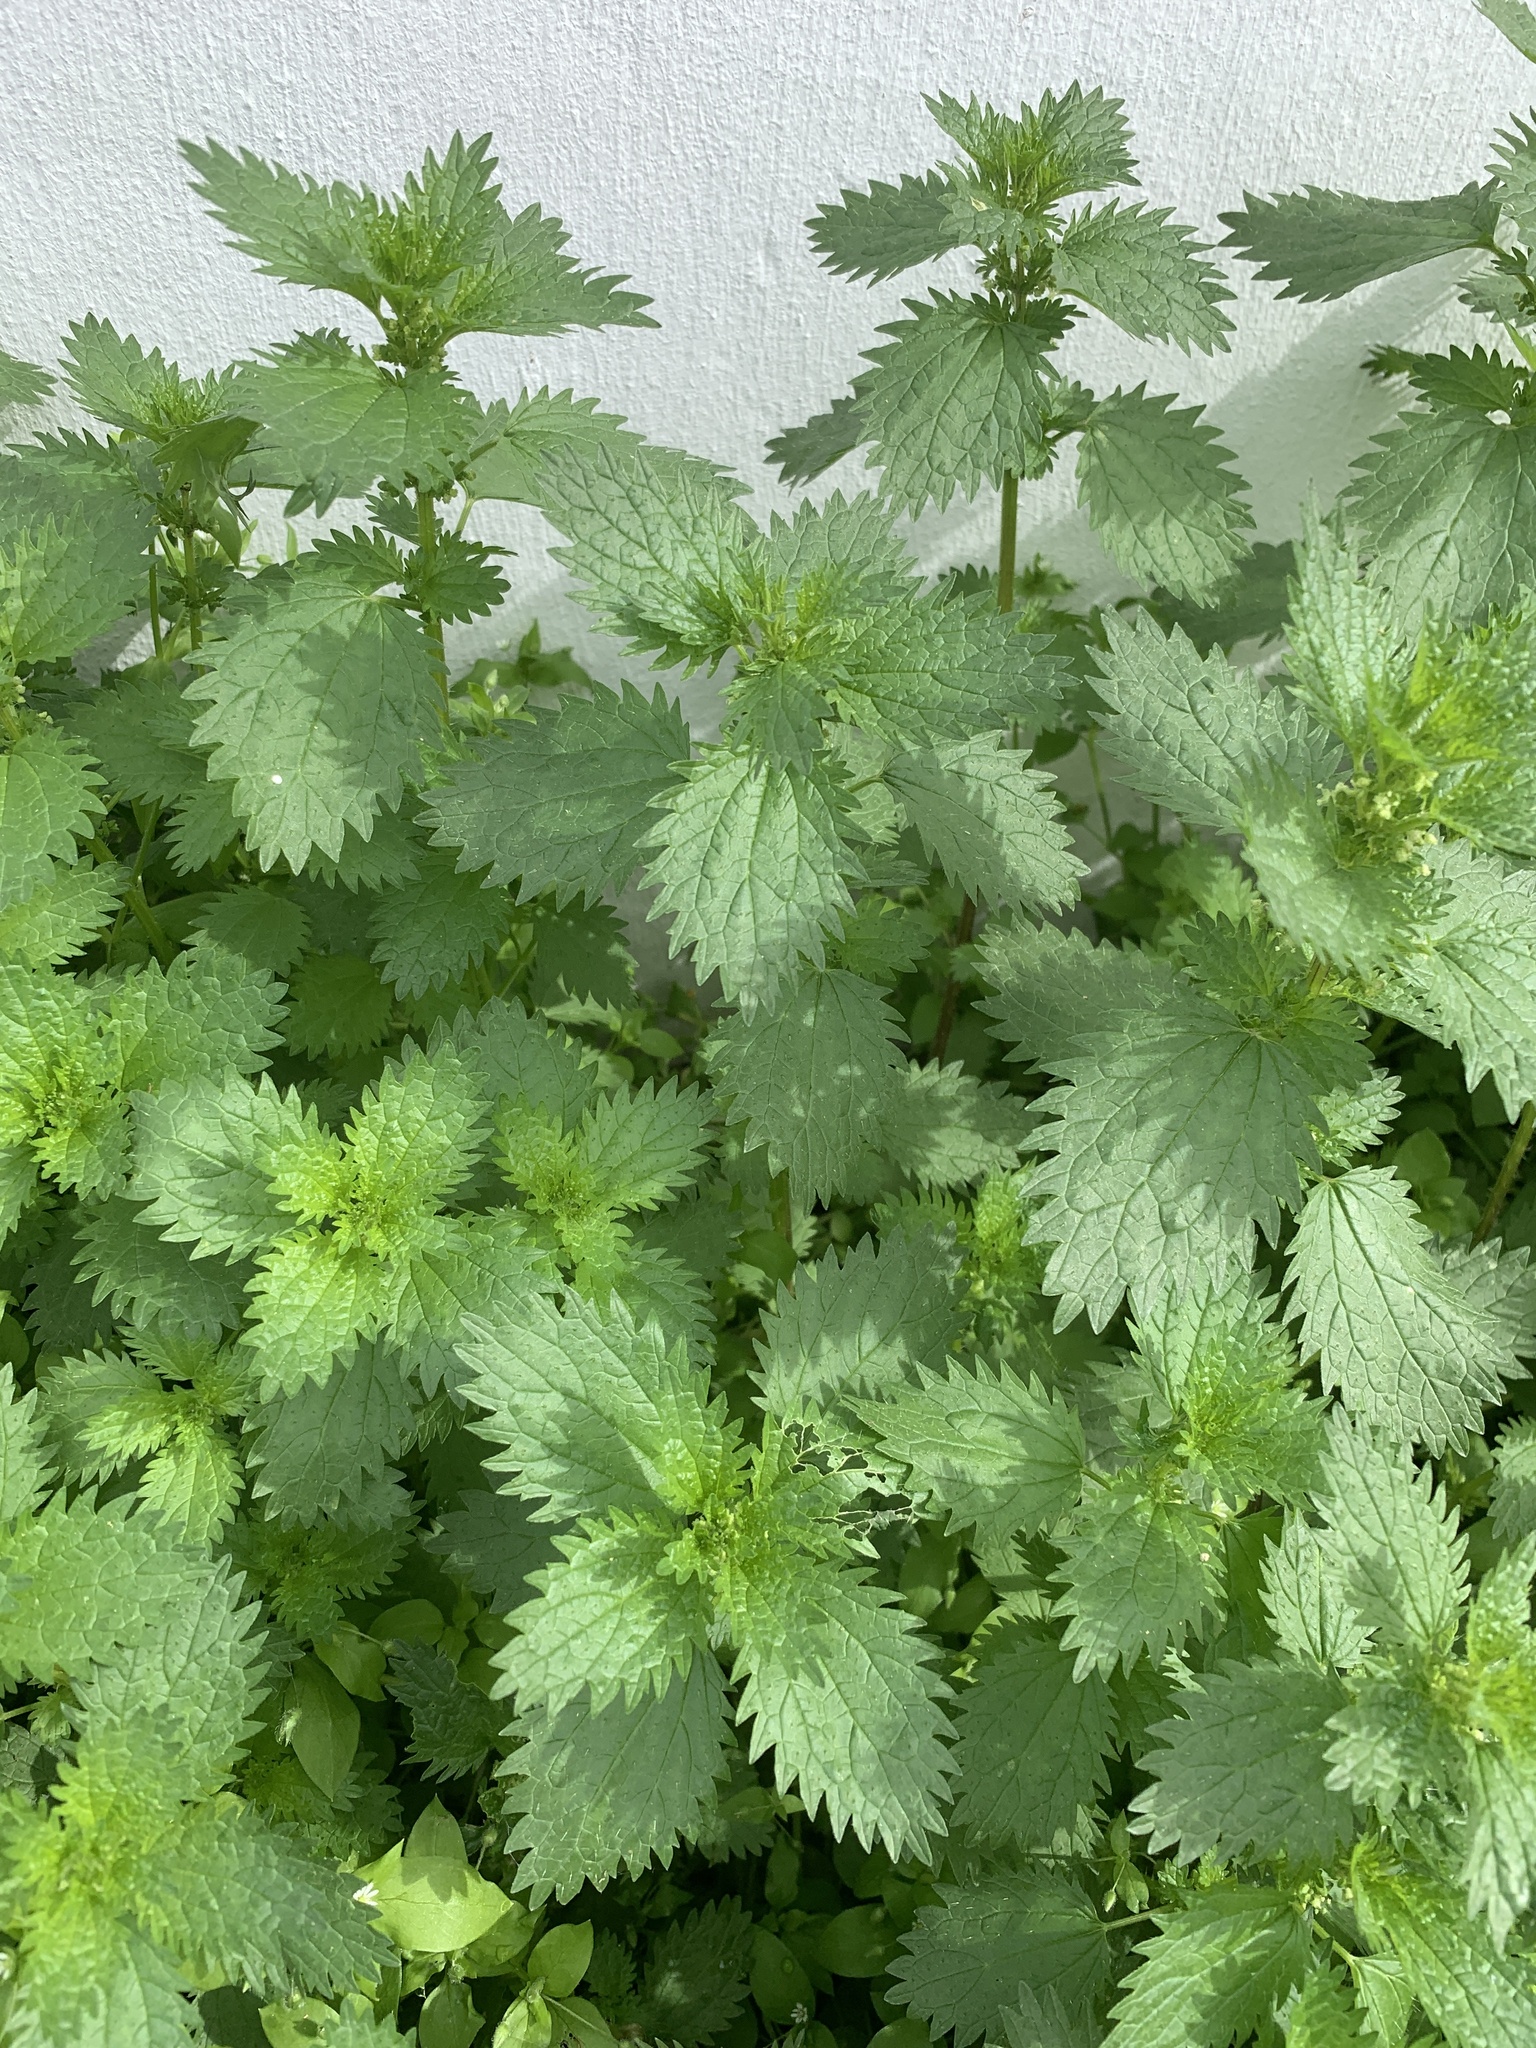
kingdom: Plantae
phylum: Tracheophyta
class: Magnoliopsida
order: Rosales
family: Urticaceae
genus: Urtica
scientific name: Urtica urens
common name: Dwarf nettle
